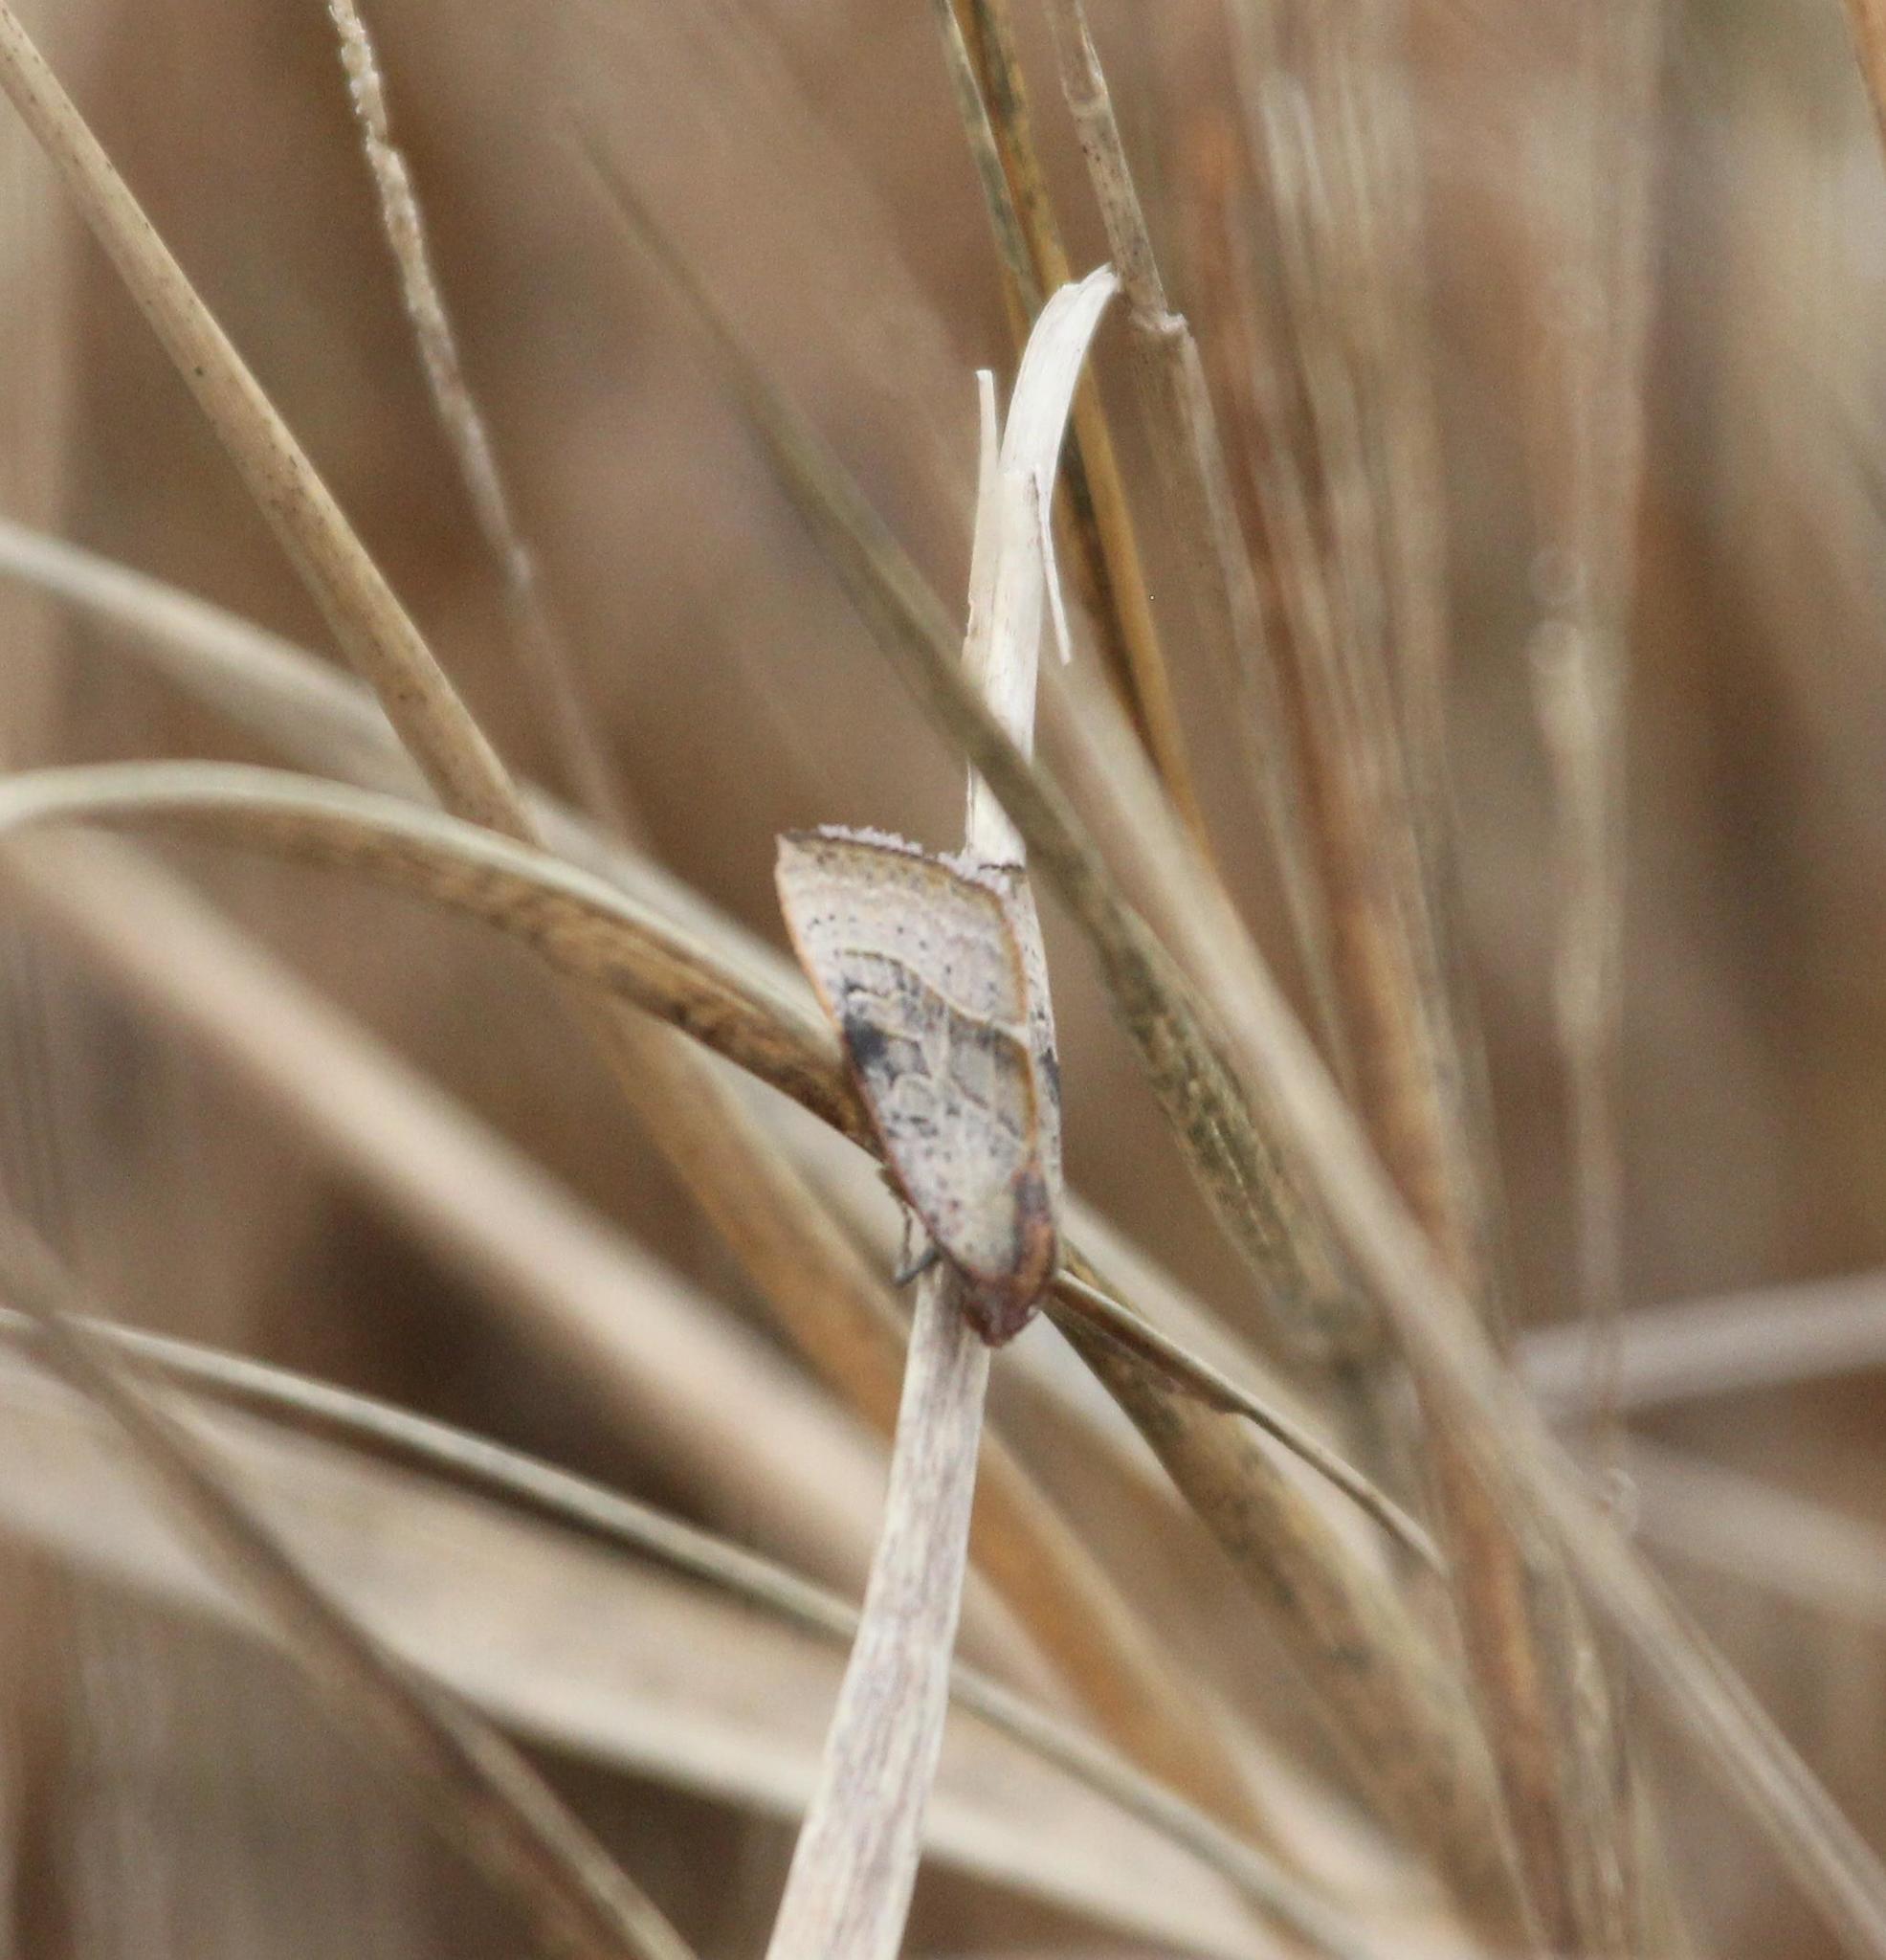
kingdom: Animalia
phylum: Arthropoda
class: Insecta
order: Lepidoptera
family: Noctuidae
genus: Galgula
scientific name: Galgula partita
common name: Wedgeling
